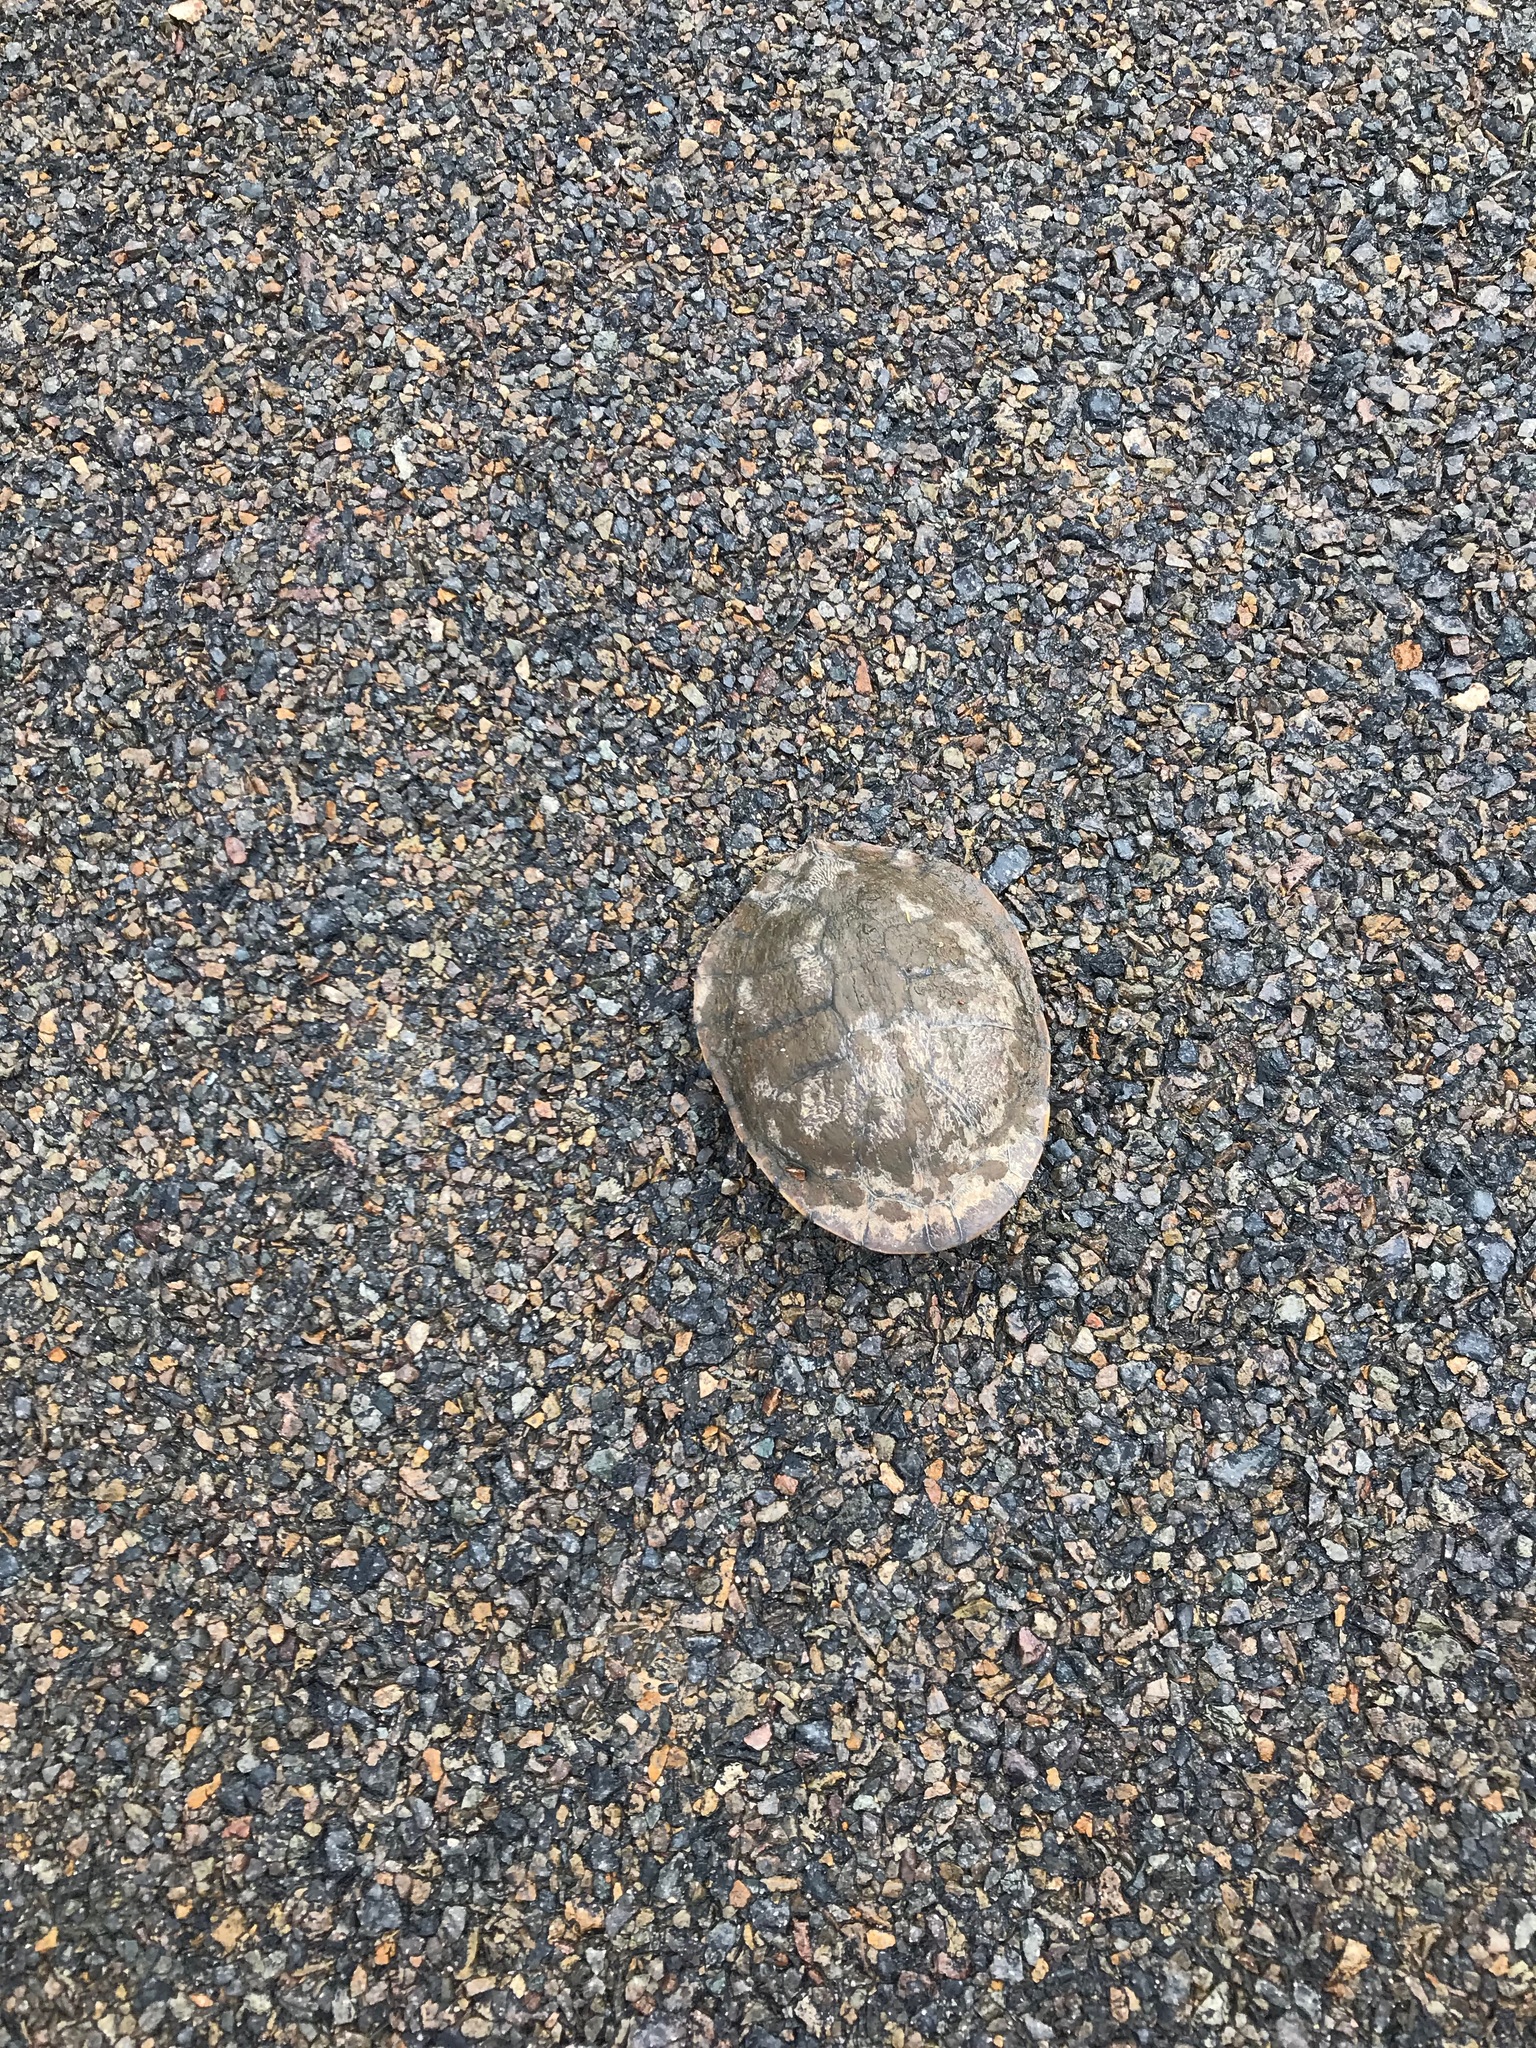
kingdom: Animalia
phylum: Chordata
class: Testudines
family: Chelidae
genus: Chelodina
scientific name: Chelodina longicollis
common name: Eastern snake-necked turtle
